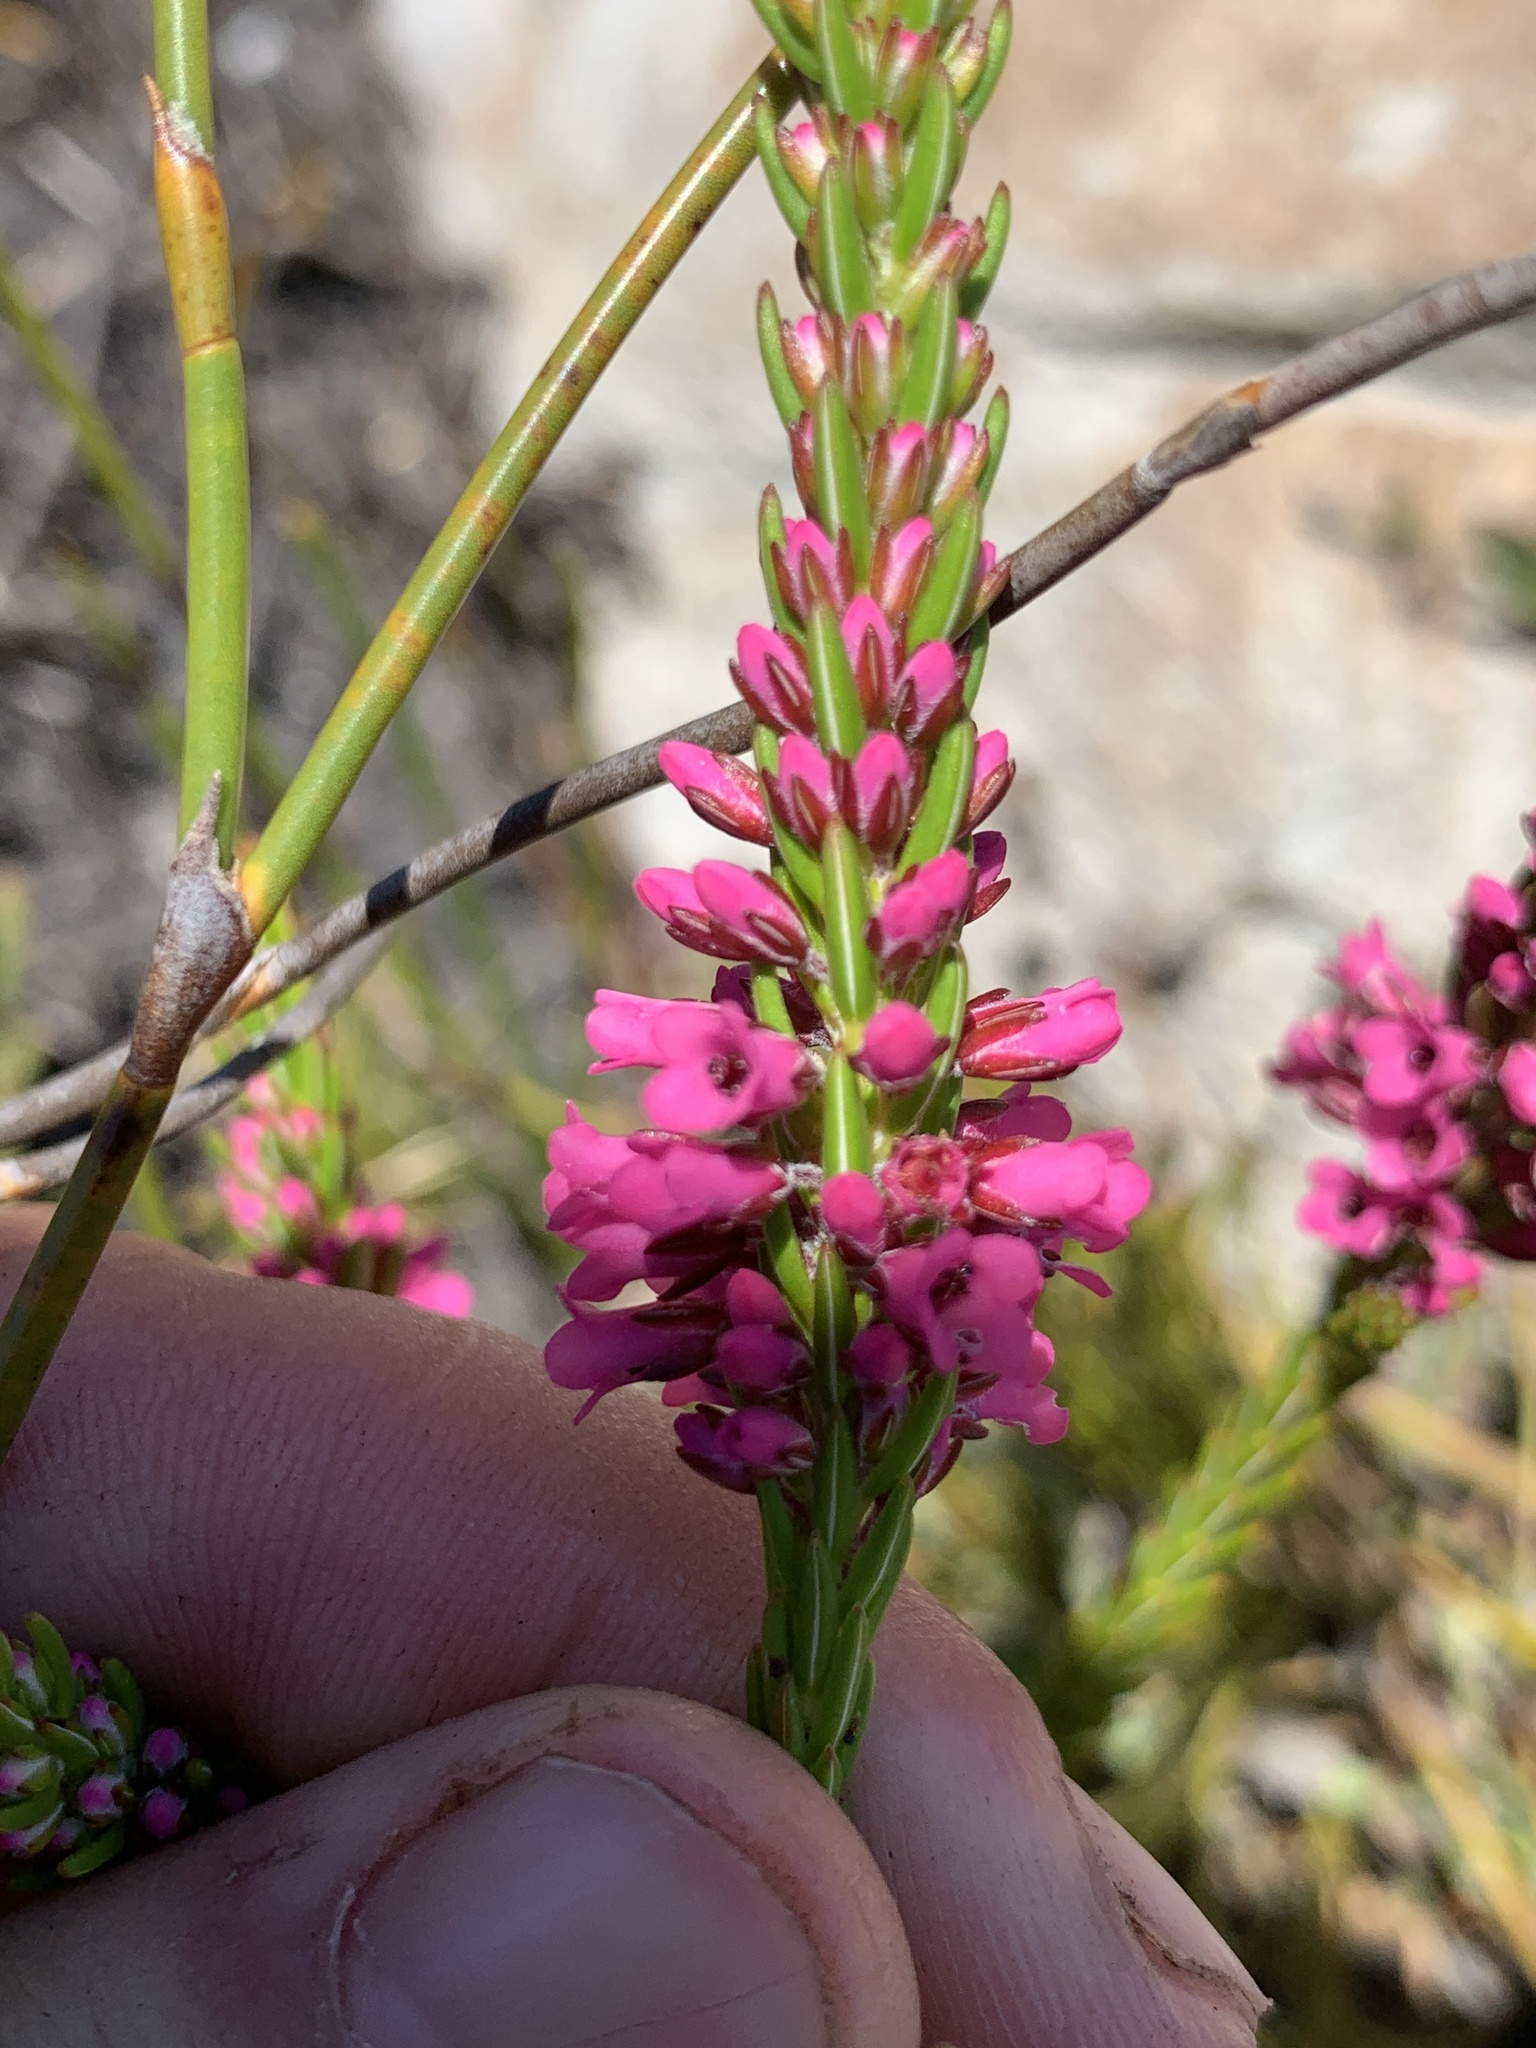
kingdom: Plantae
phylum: Tracheophyta
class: Magnoliopsida
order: Ericales
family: Ericaceae
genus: Erica
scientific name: Erica longiaristata
